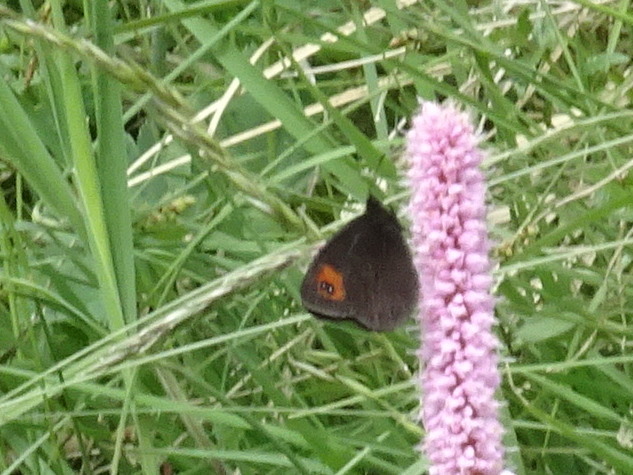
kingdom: Animalia
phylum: Arthropoda
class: Insecta
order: Lepidoptera
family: Nymphalidae
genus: Erebia
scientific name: Erebia meolans
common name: Piedmont ringlet
